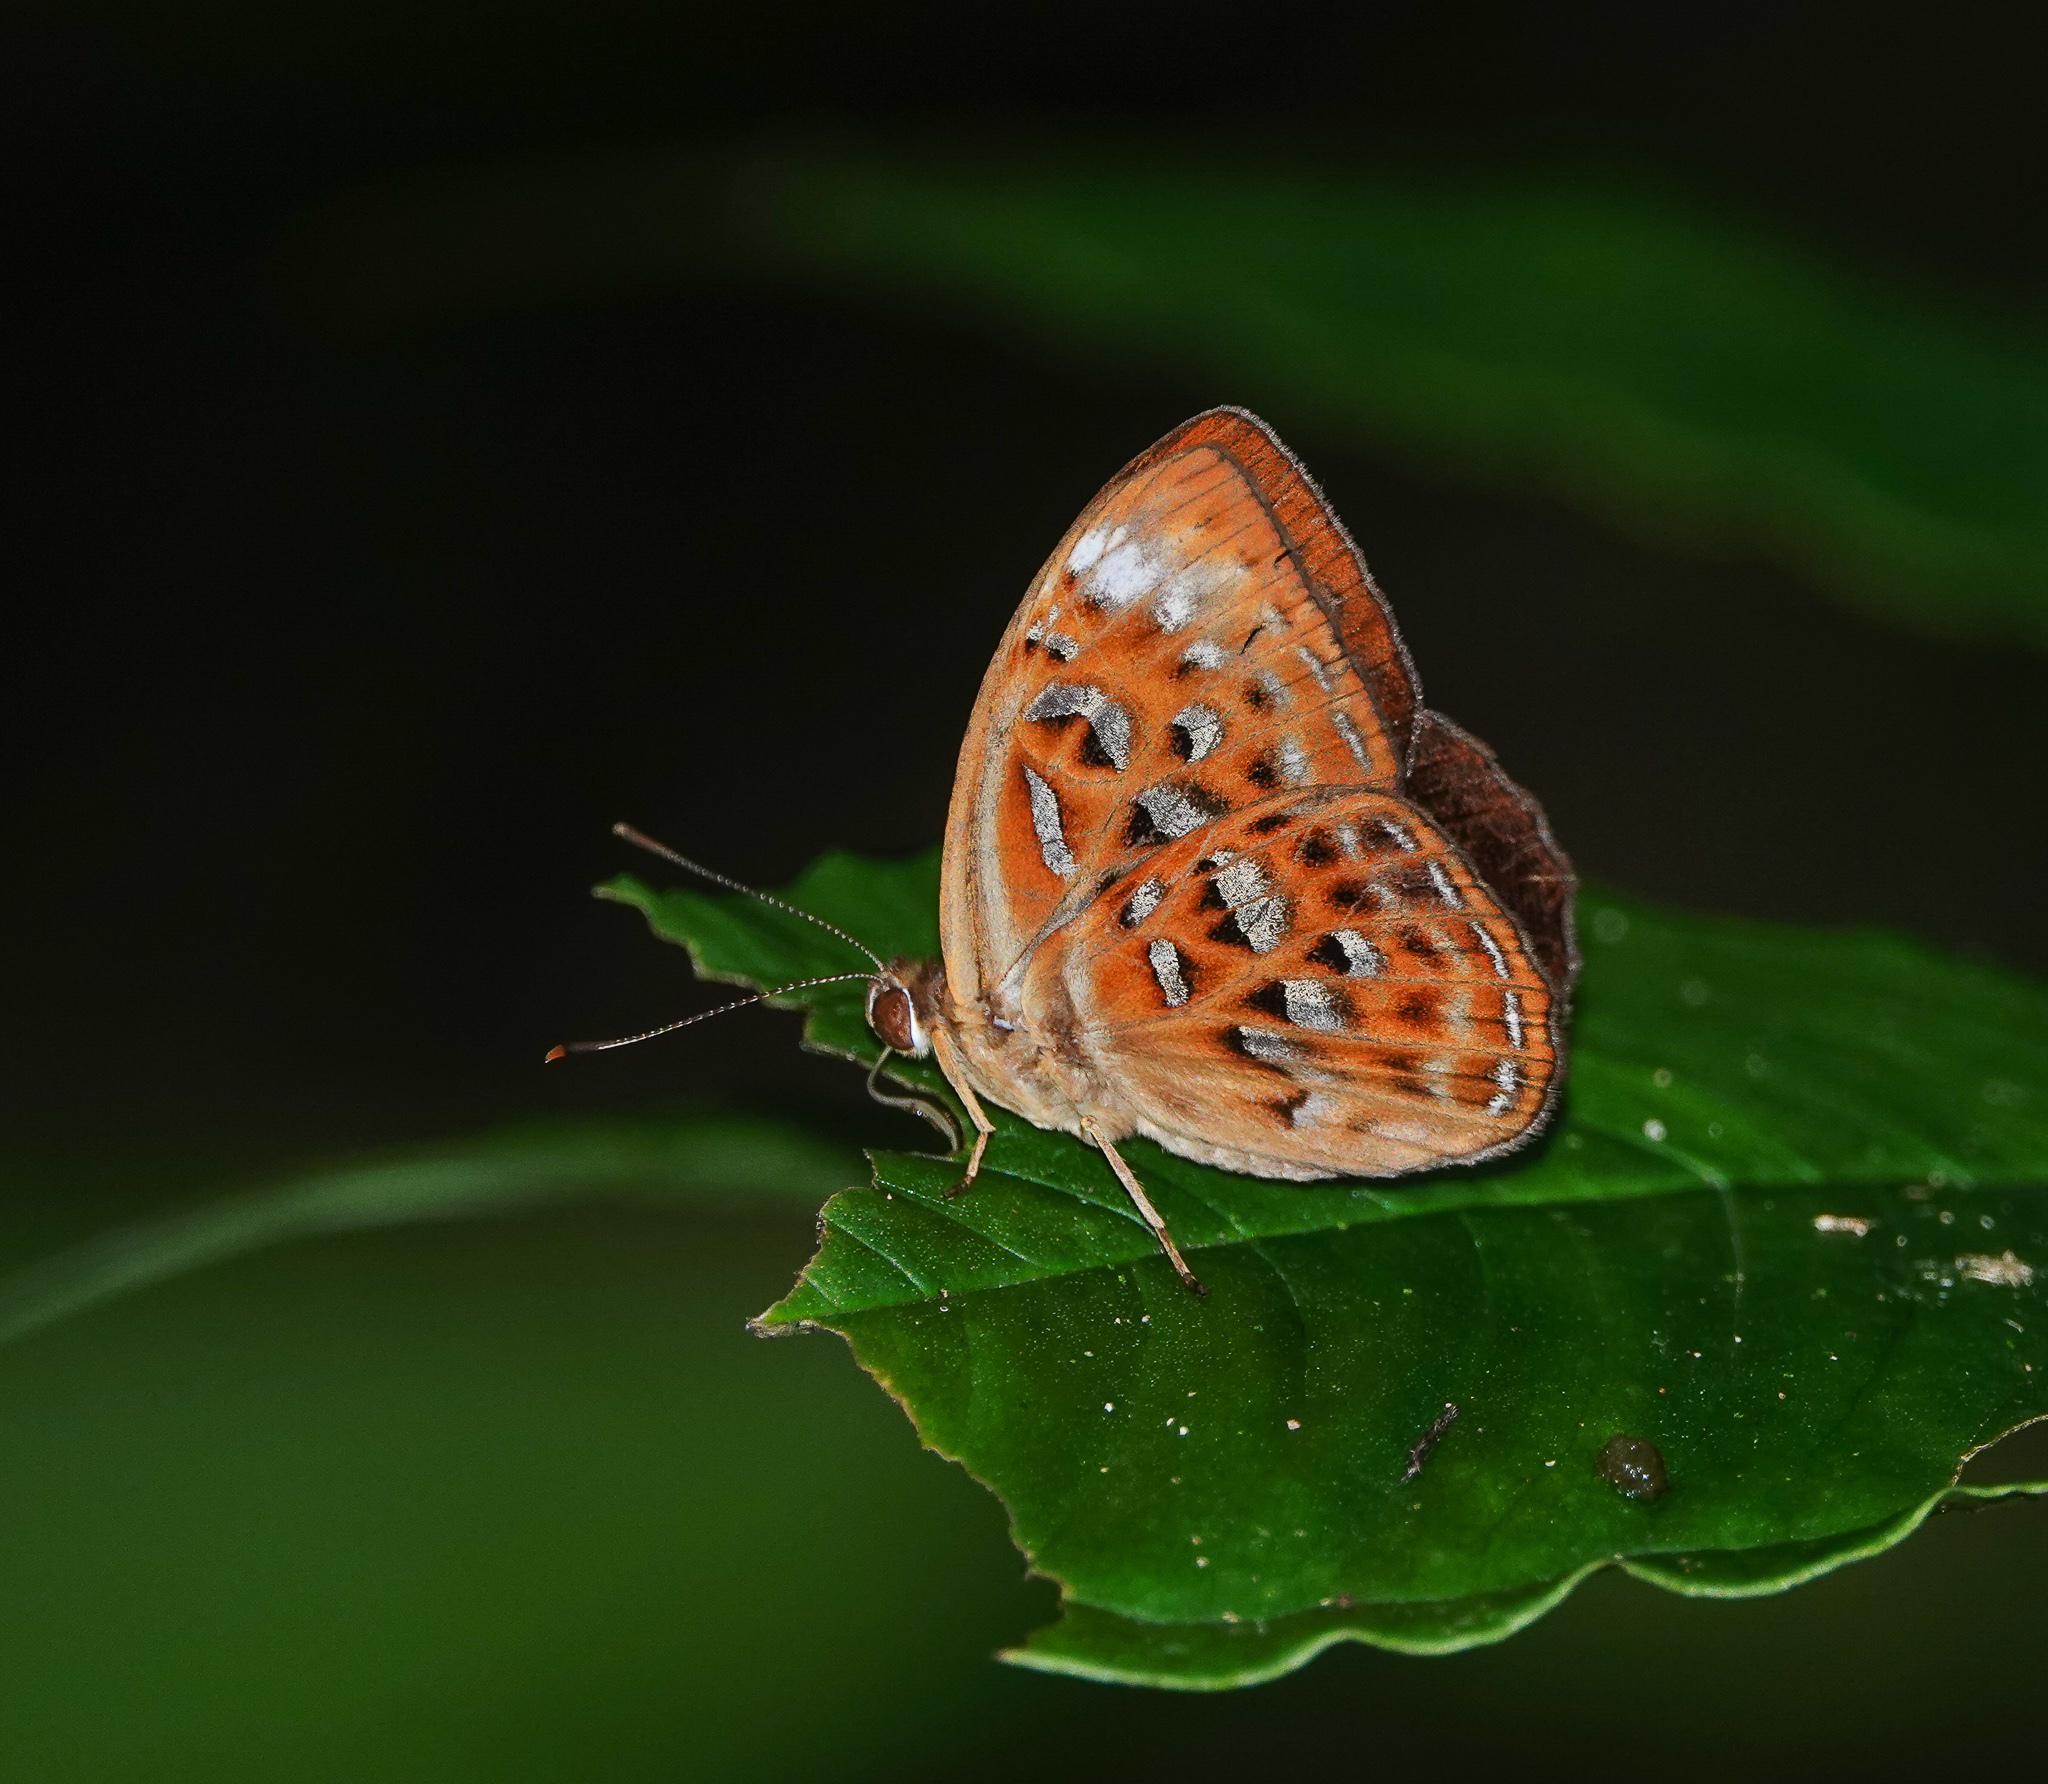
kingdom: Animalia
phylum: Arthropoda
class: Insecta
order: Lepidoptera
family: Erebidae
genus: Dysschema
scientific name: Dysschema
